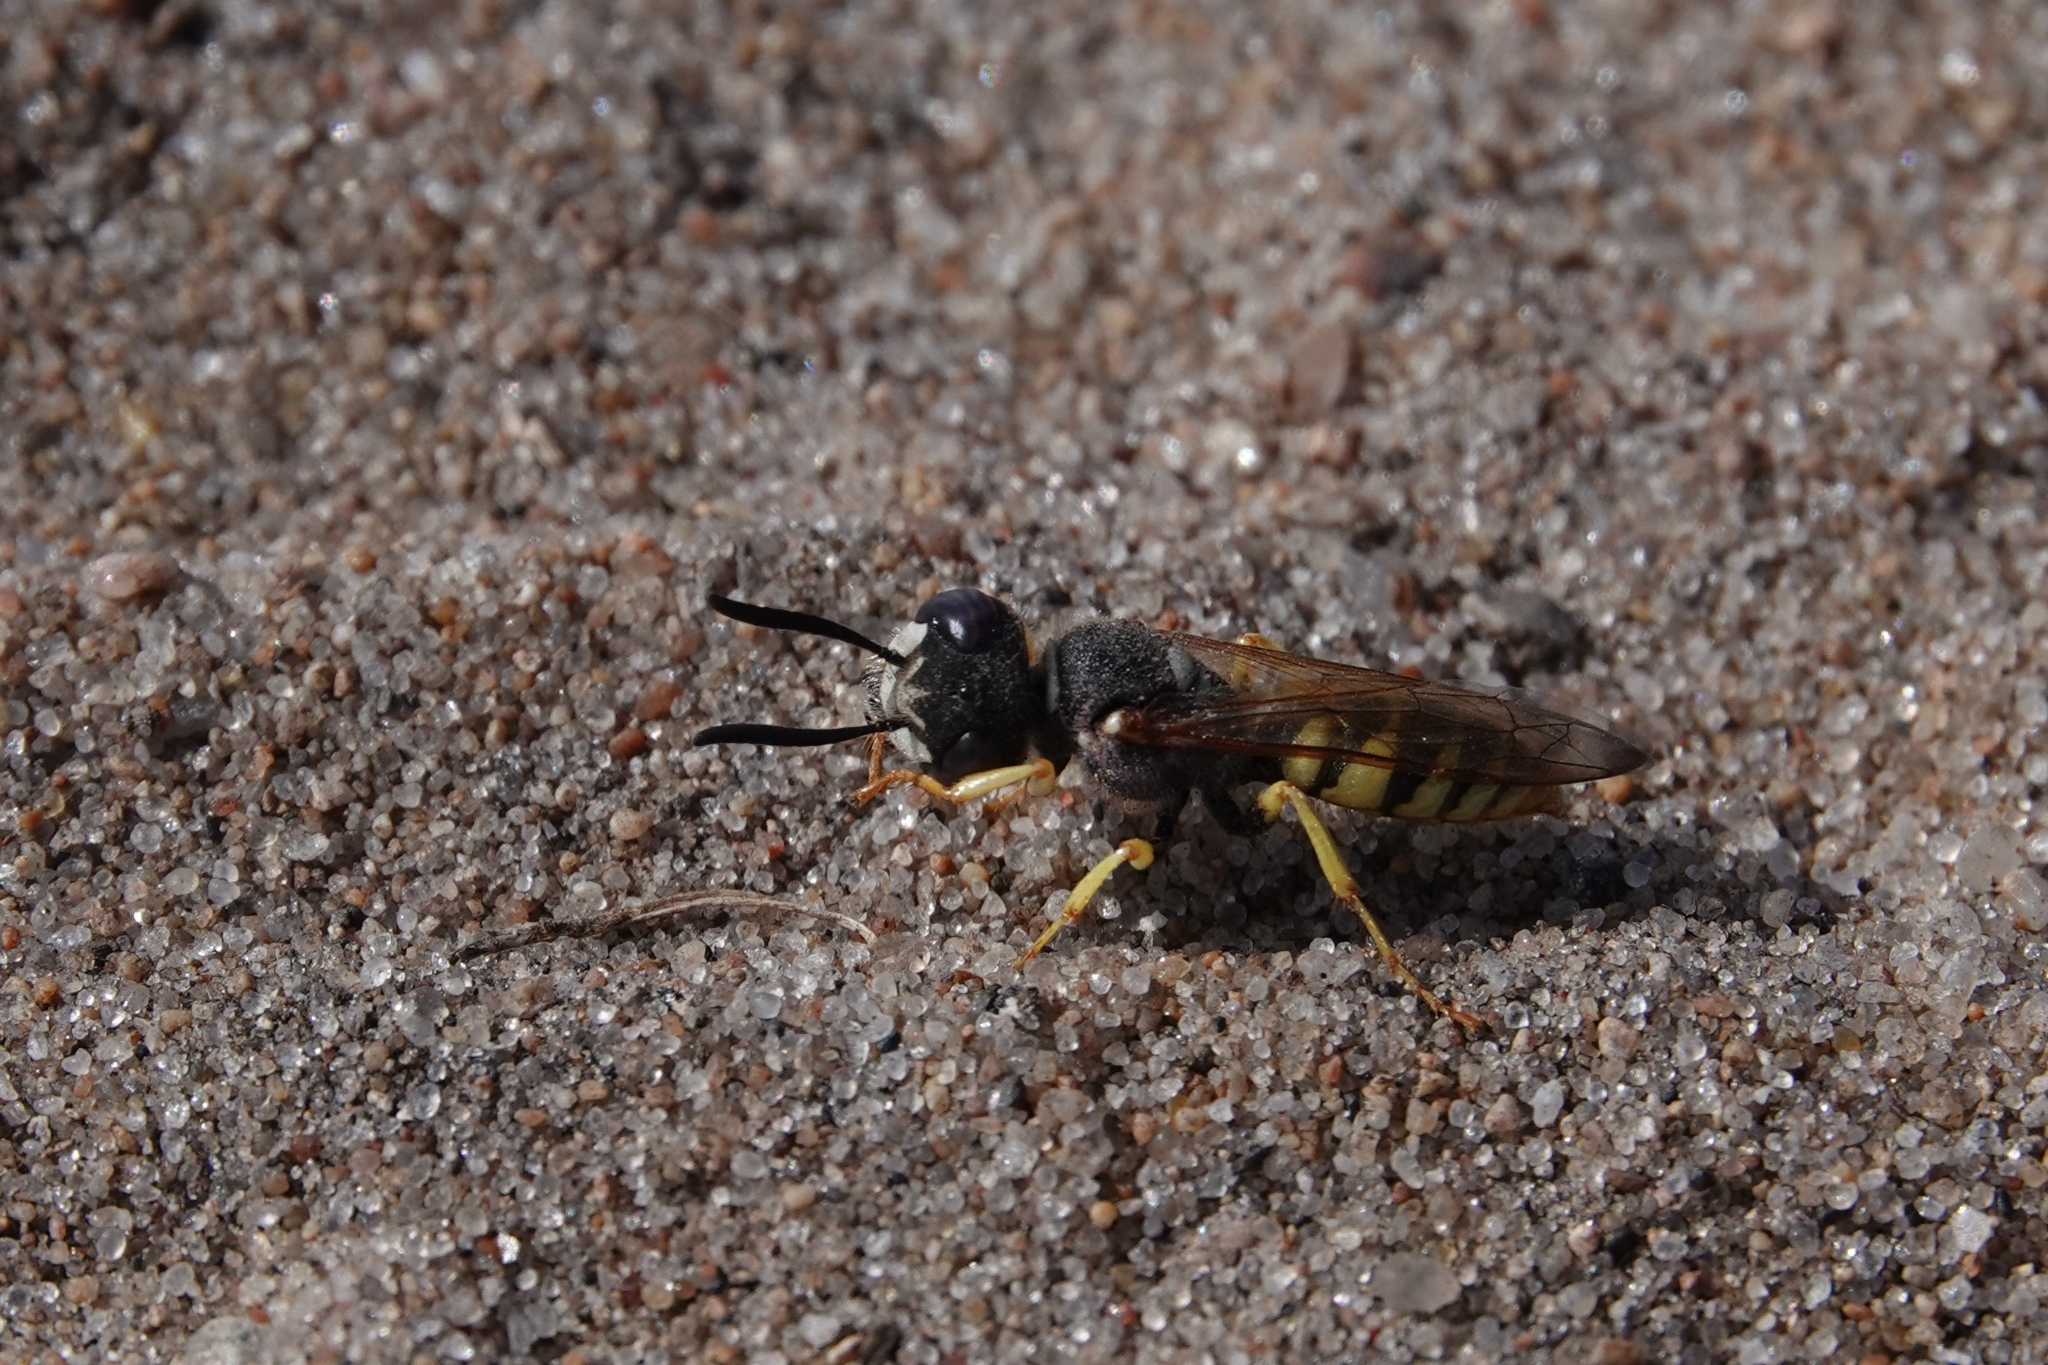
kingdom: Animalia
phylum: Arthropoda
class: Insecta
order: Hymenoptera
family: Crabronidae
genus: Philanthus
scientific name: Philanthus triangulum
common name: Bee wolf
